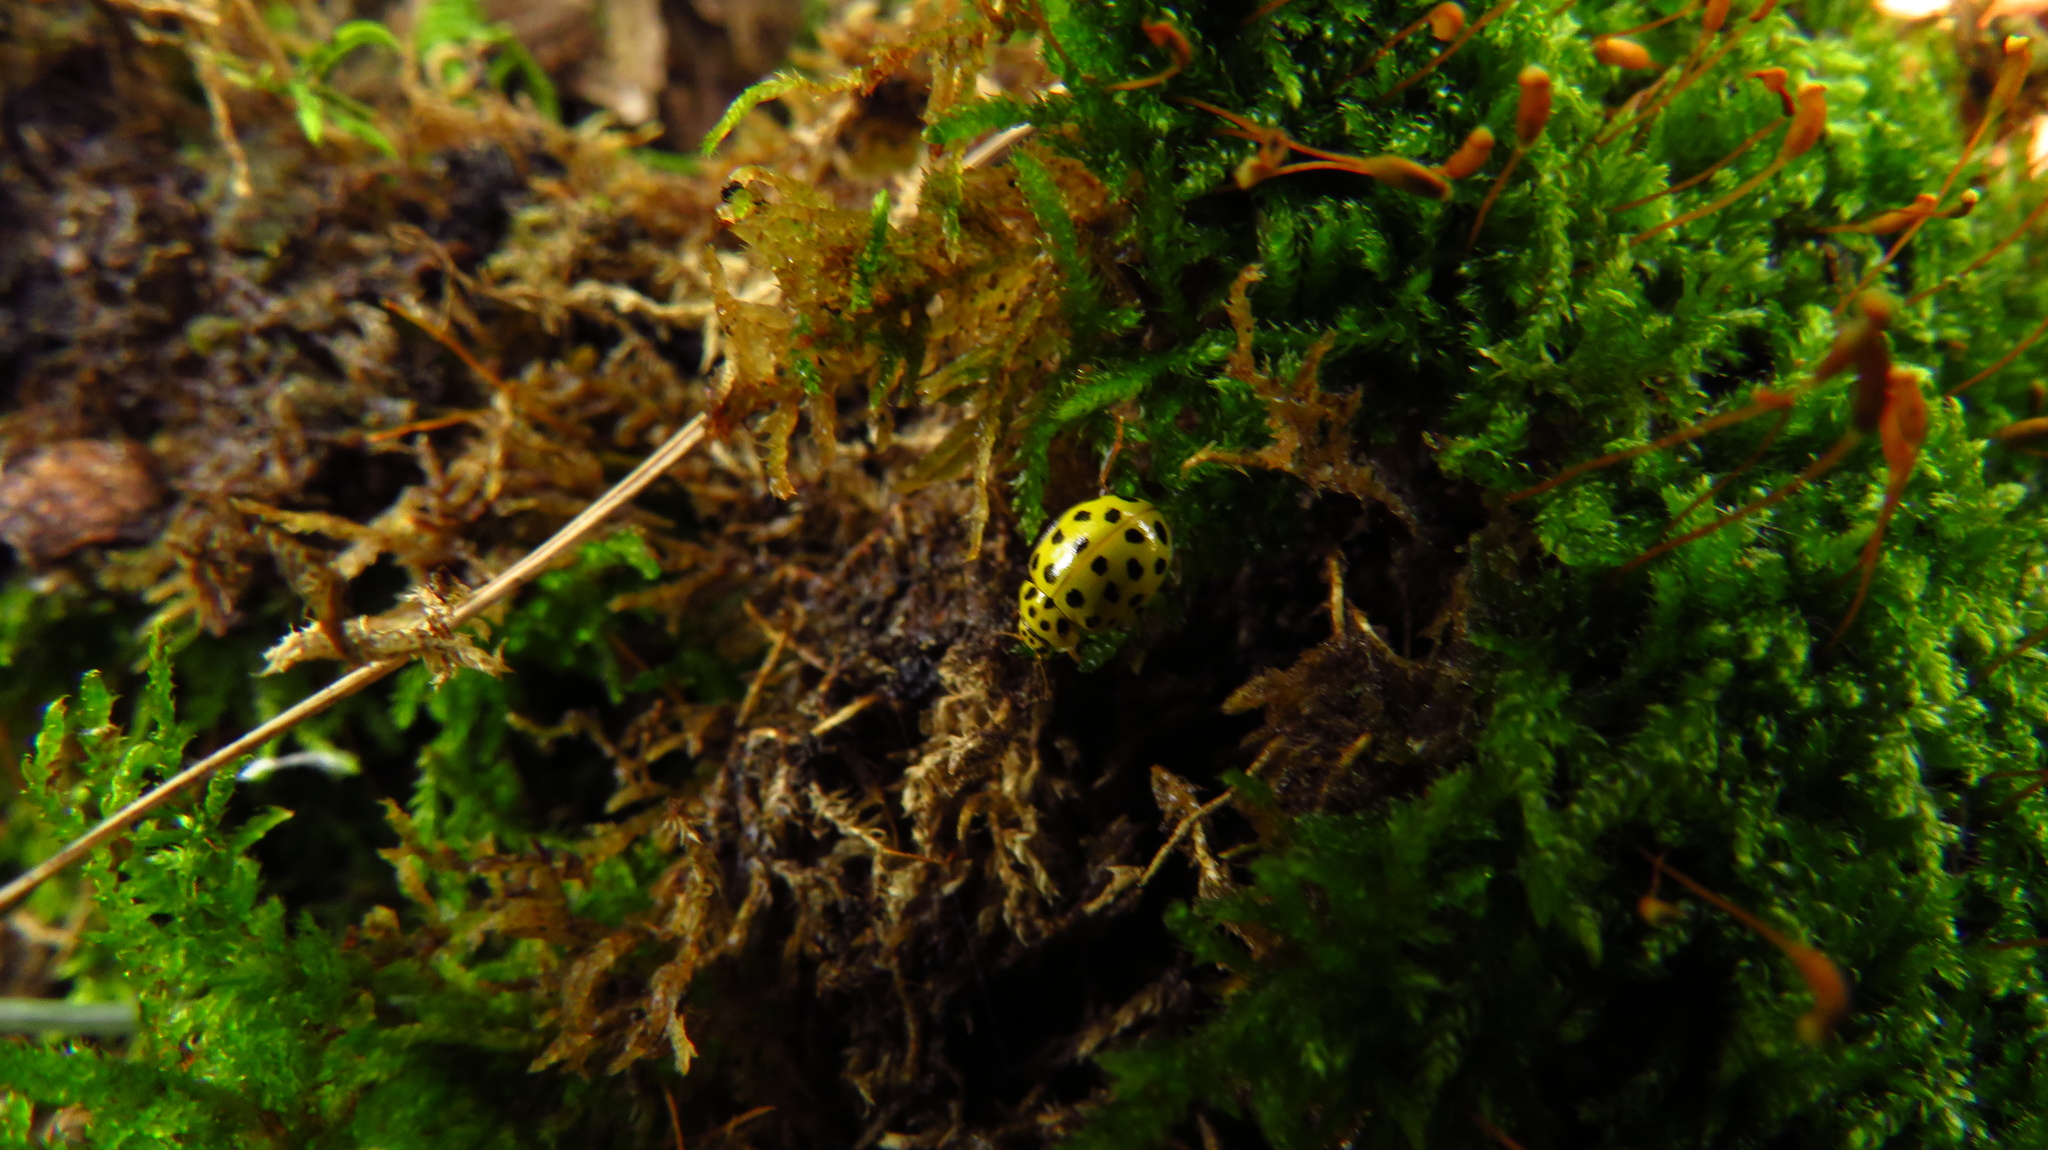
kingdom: Animalia
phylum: Arthropoda
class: Insecta
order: Coleoptera
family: Coccinellidae
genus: Psyllobora
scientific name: Psyllobora vigintiduopunctata
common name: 22-spot ladybird
